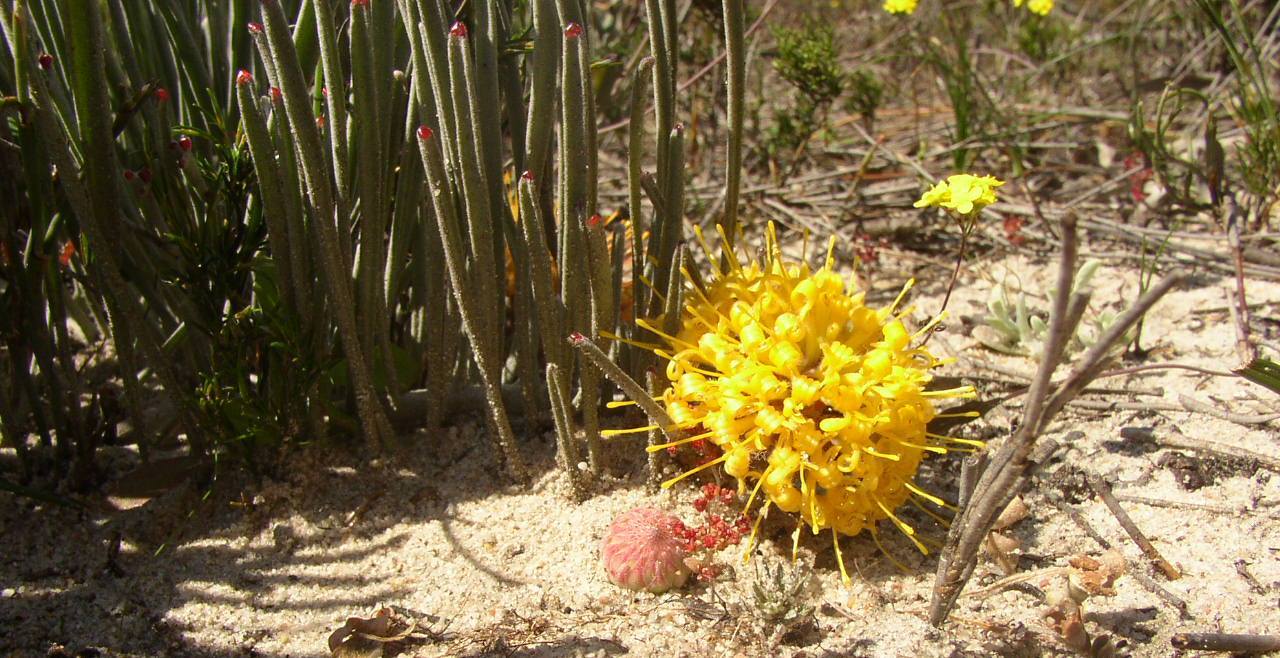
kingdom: Plantae
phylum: Tracheophyta
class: Magnoliopsida
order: Proteales
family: Proteaceae
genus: Leucospermum
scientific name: Leucospermum hypophyllocarpodendron
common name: Snakestem pincushion
